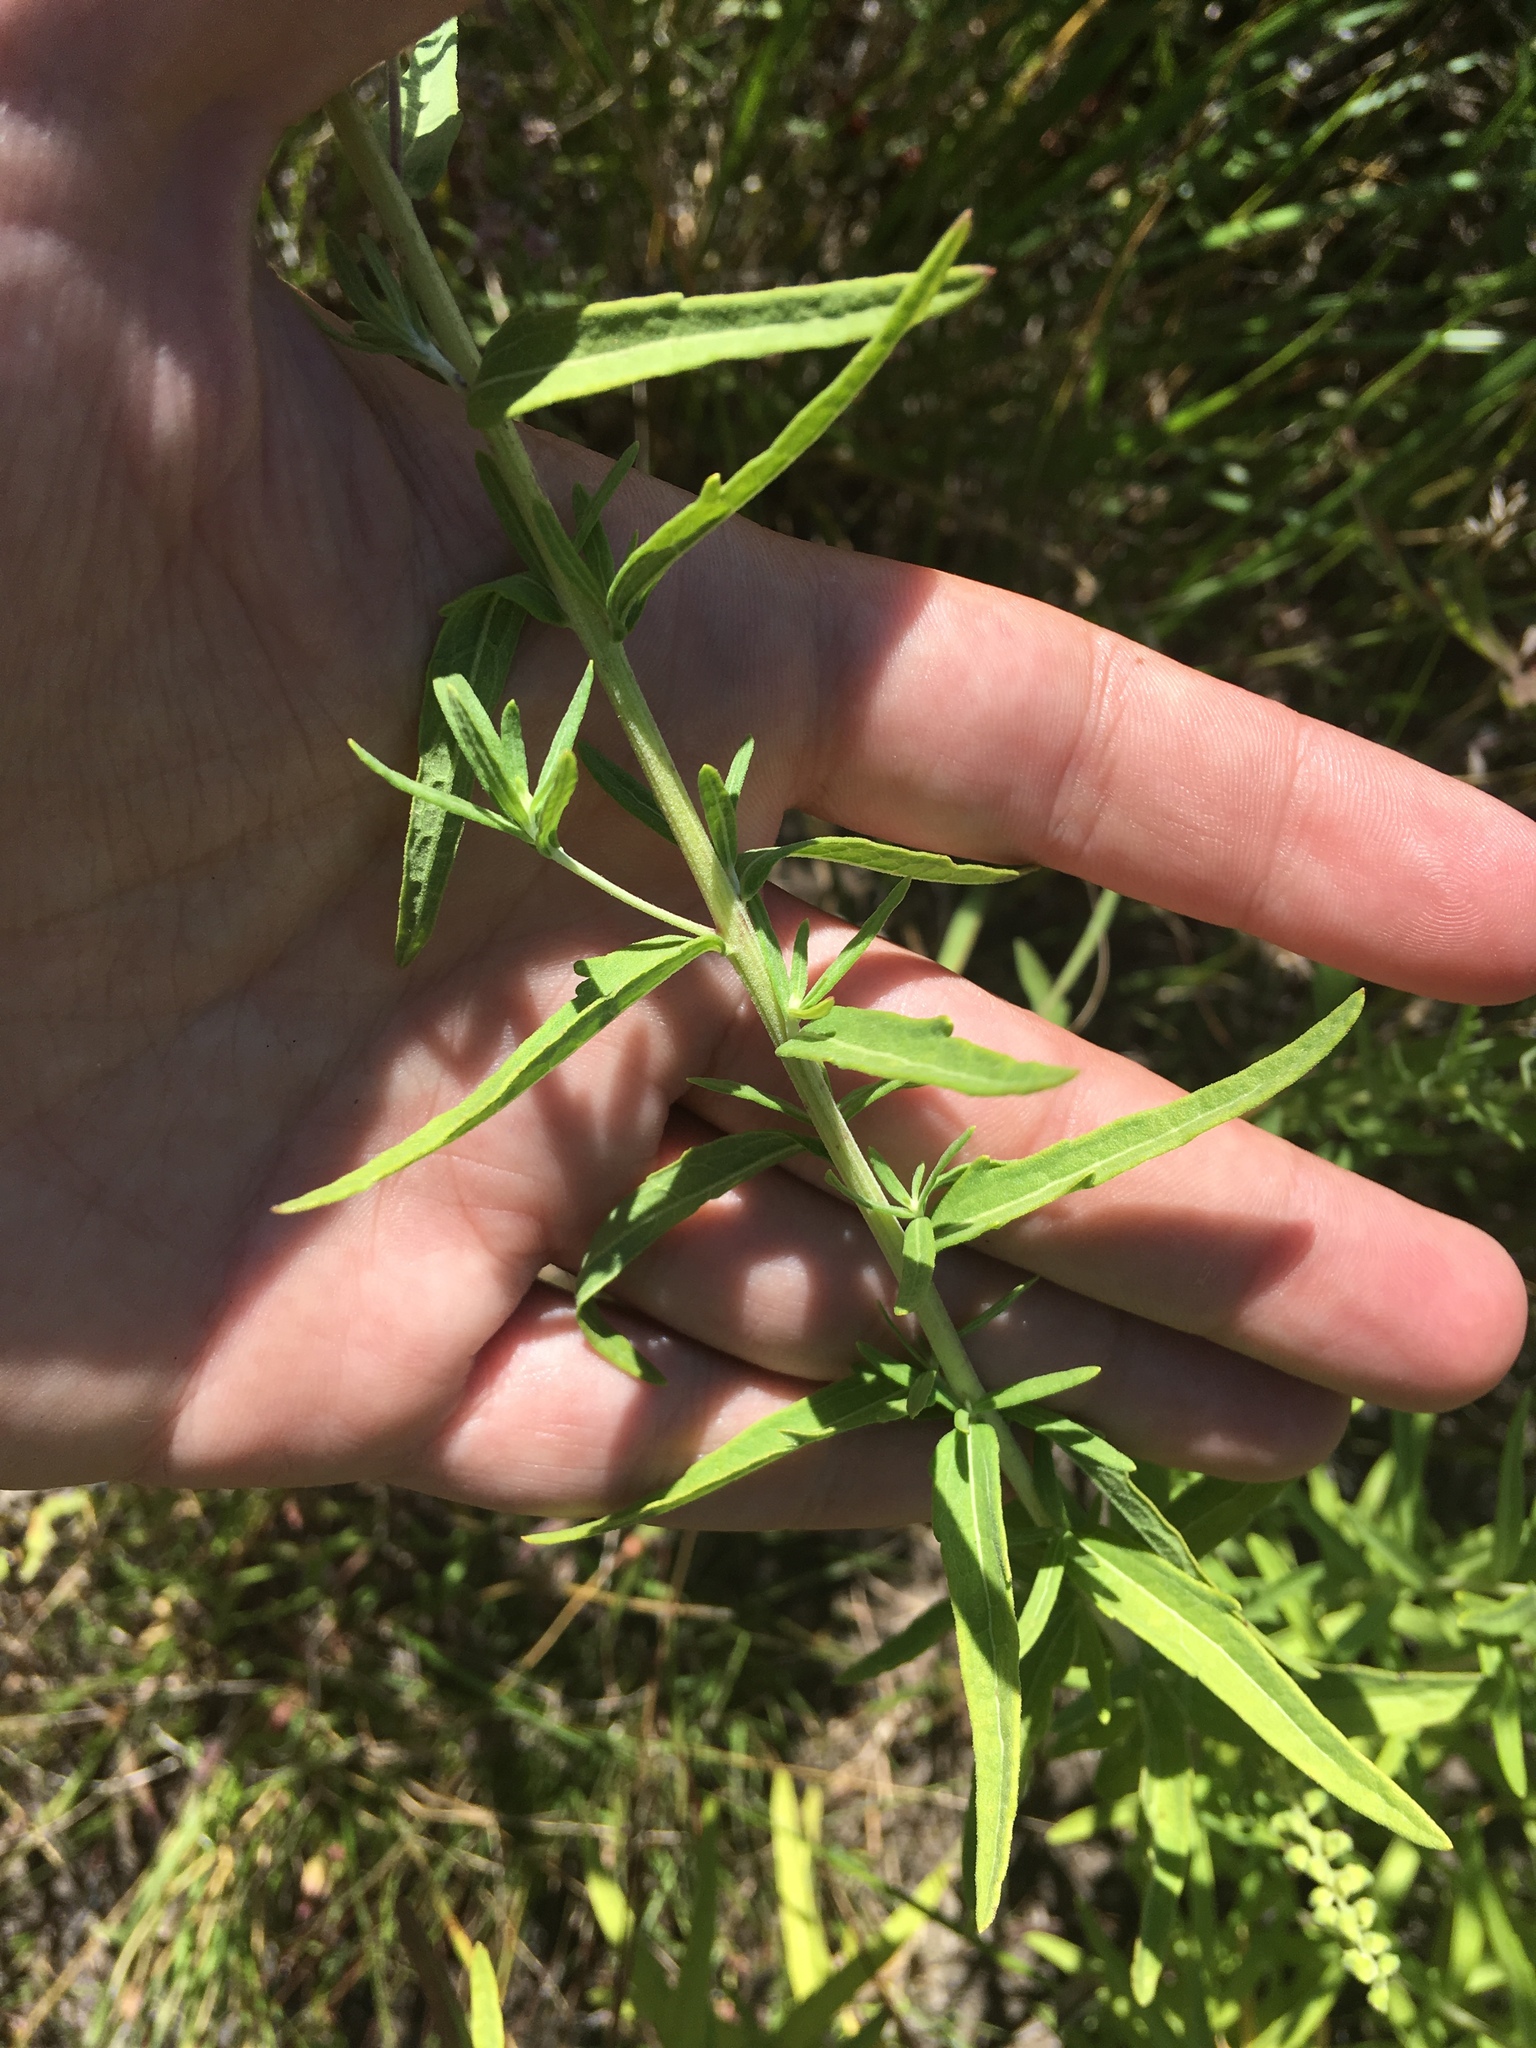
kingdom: Plantae
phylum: Tracheophyta
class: Magnoliopsida
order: Asterales
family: Asteraceae
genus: Brickellia
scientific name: Brickellia eupatorioides
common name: False boneset
